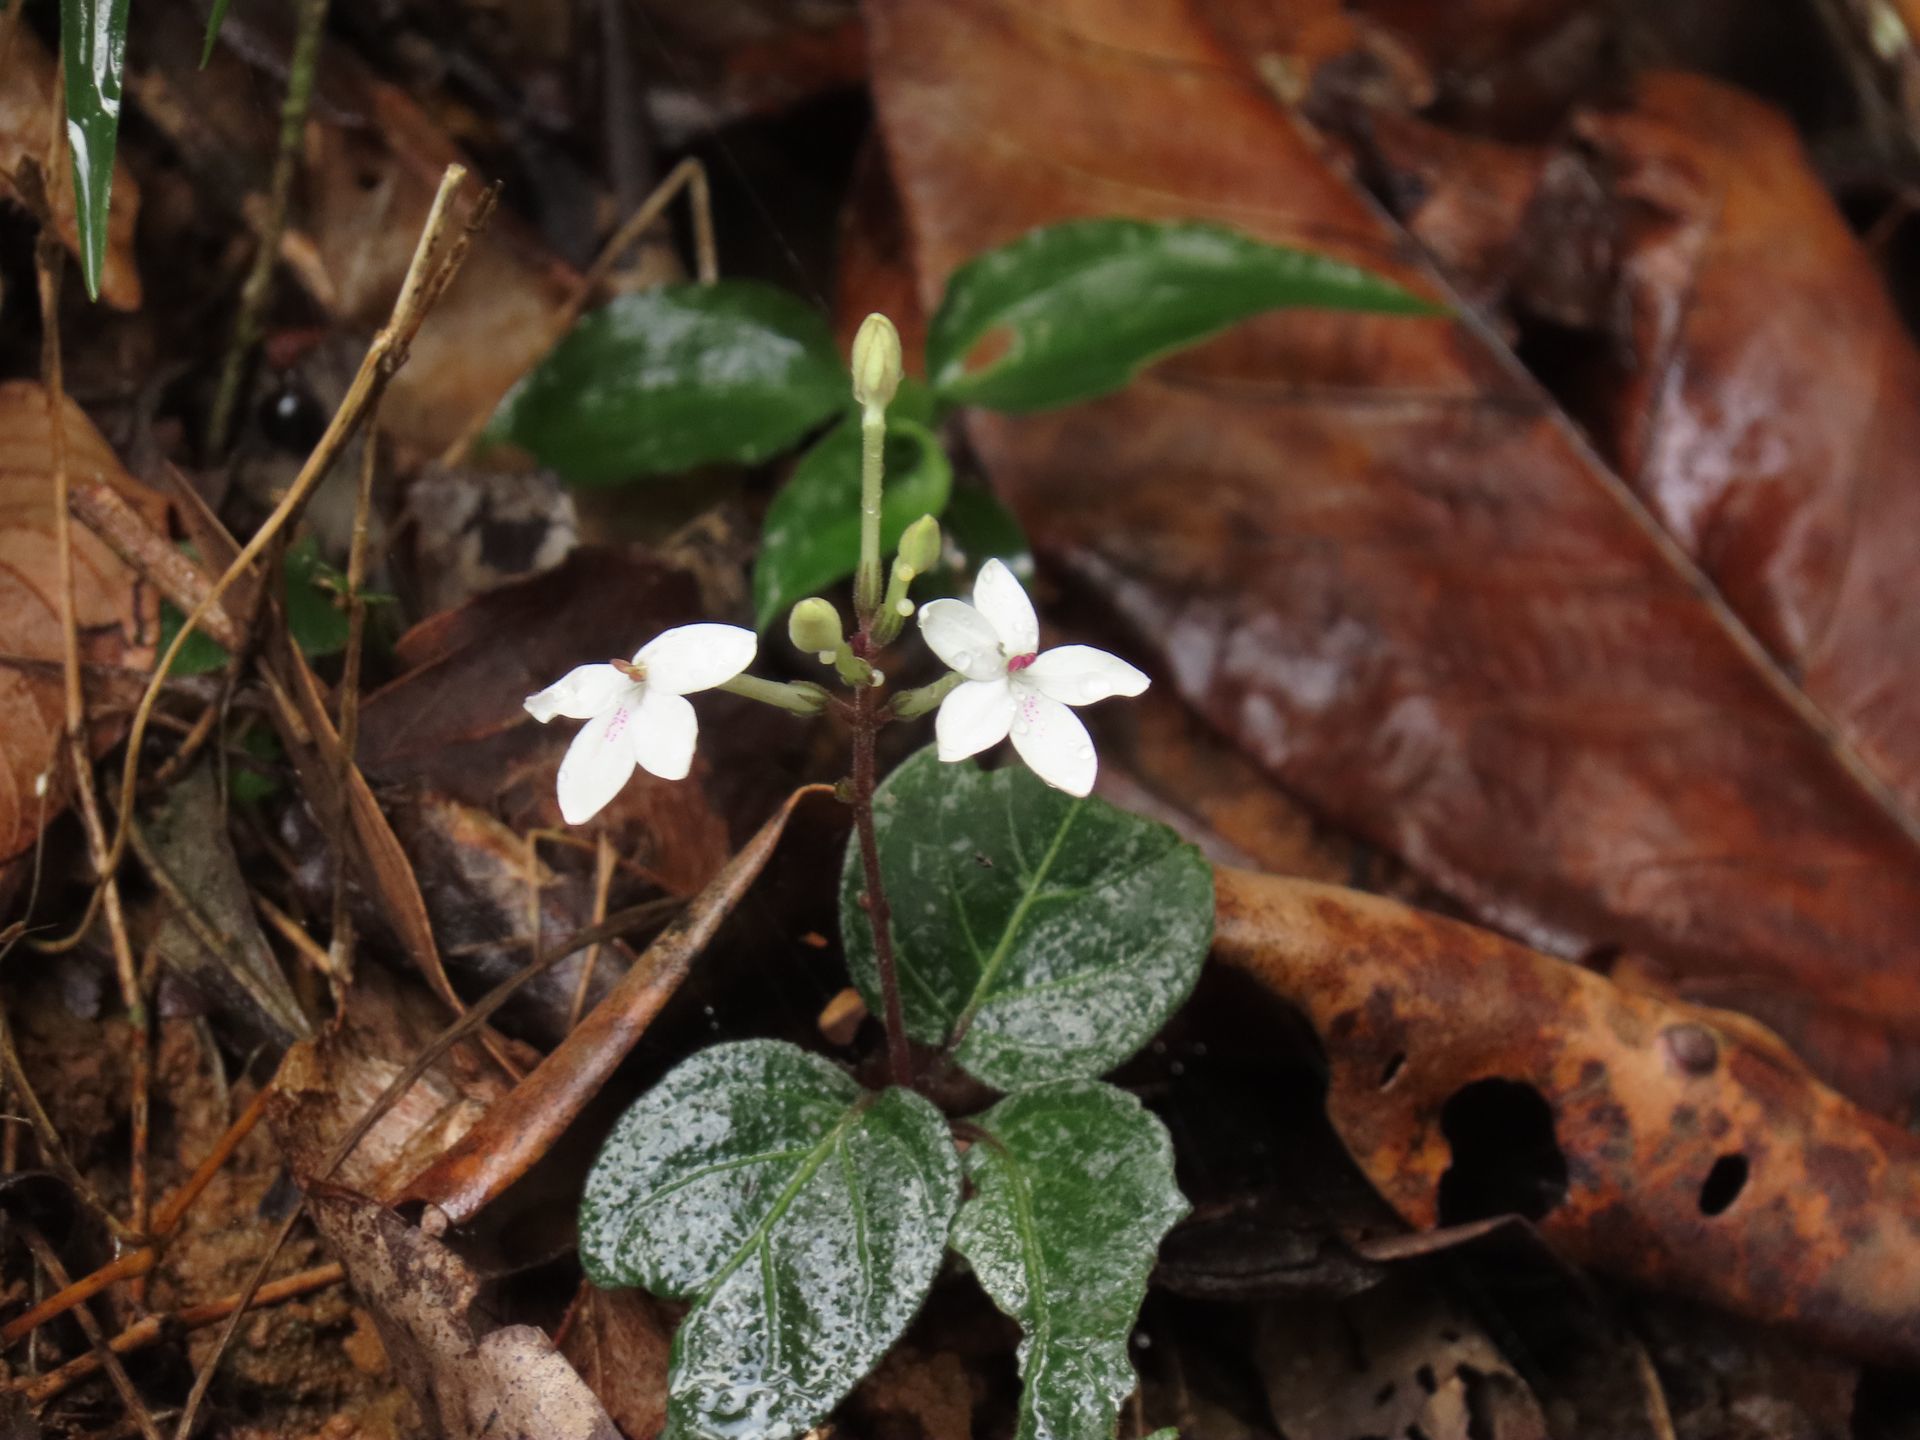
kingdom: Plantae
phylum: Tracheophyta
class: Magnoliopsida
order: Lamiales
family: Acanthaceae
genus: Pseuderanthemum
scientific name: Pseuderanthemum variabile
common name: Night and afternoon
